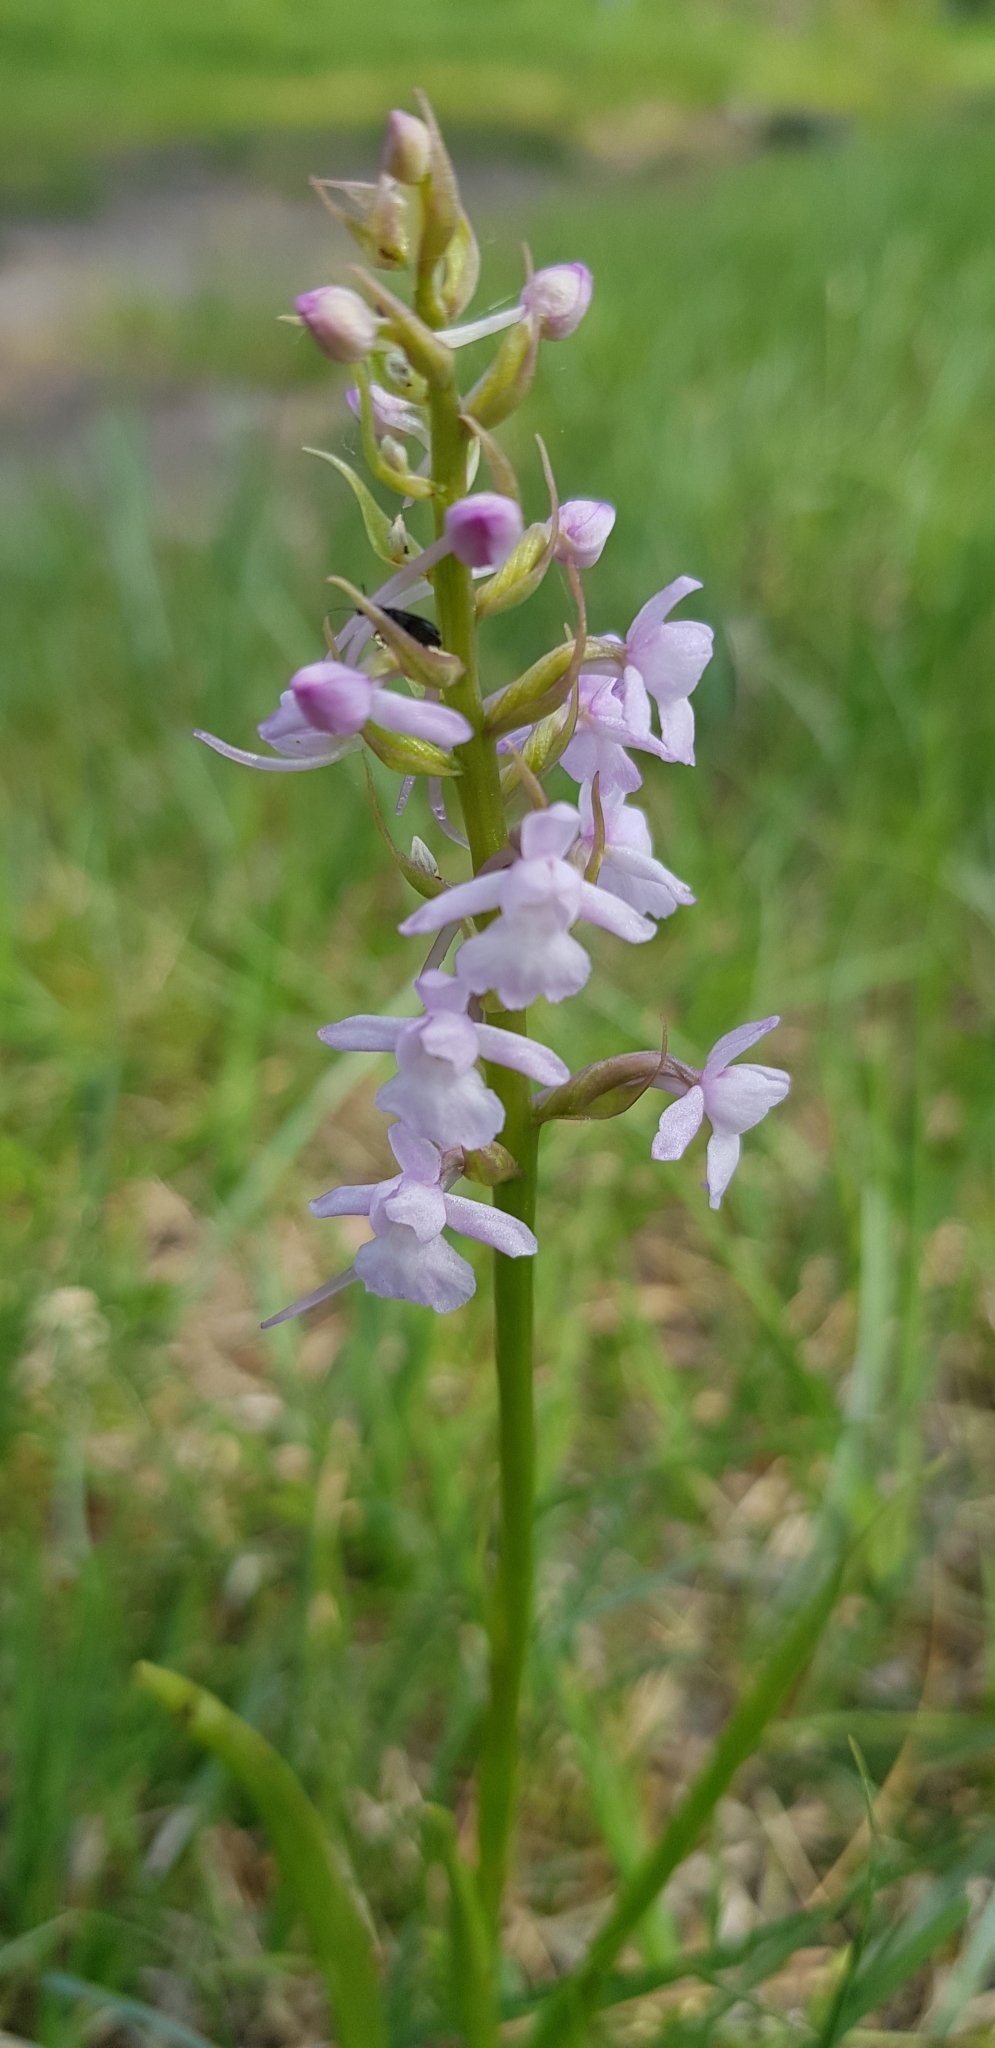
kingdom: Plantae
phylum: Tracheophyta
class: Liliopsida
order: Asparagales
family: Orchidaceae
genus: Gymnadenia
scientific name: Gymnadenia conopsea
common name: Fragrant orchid
